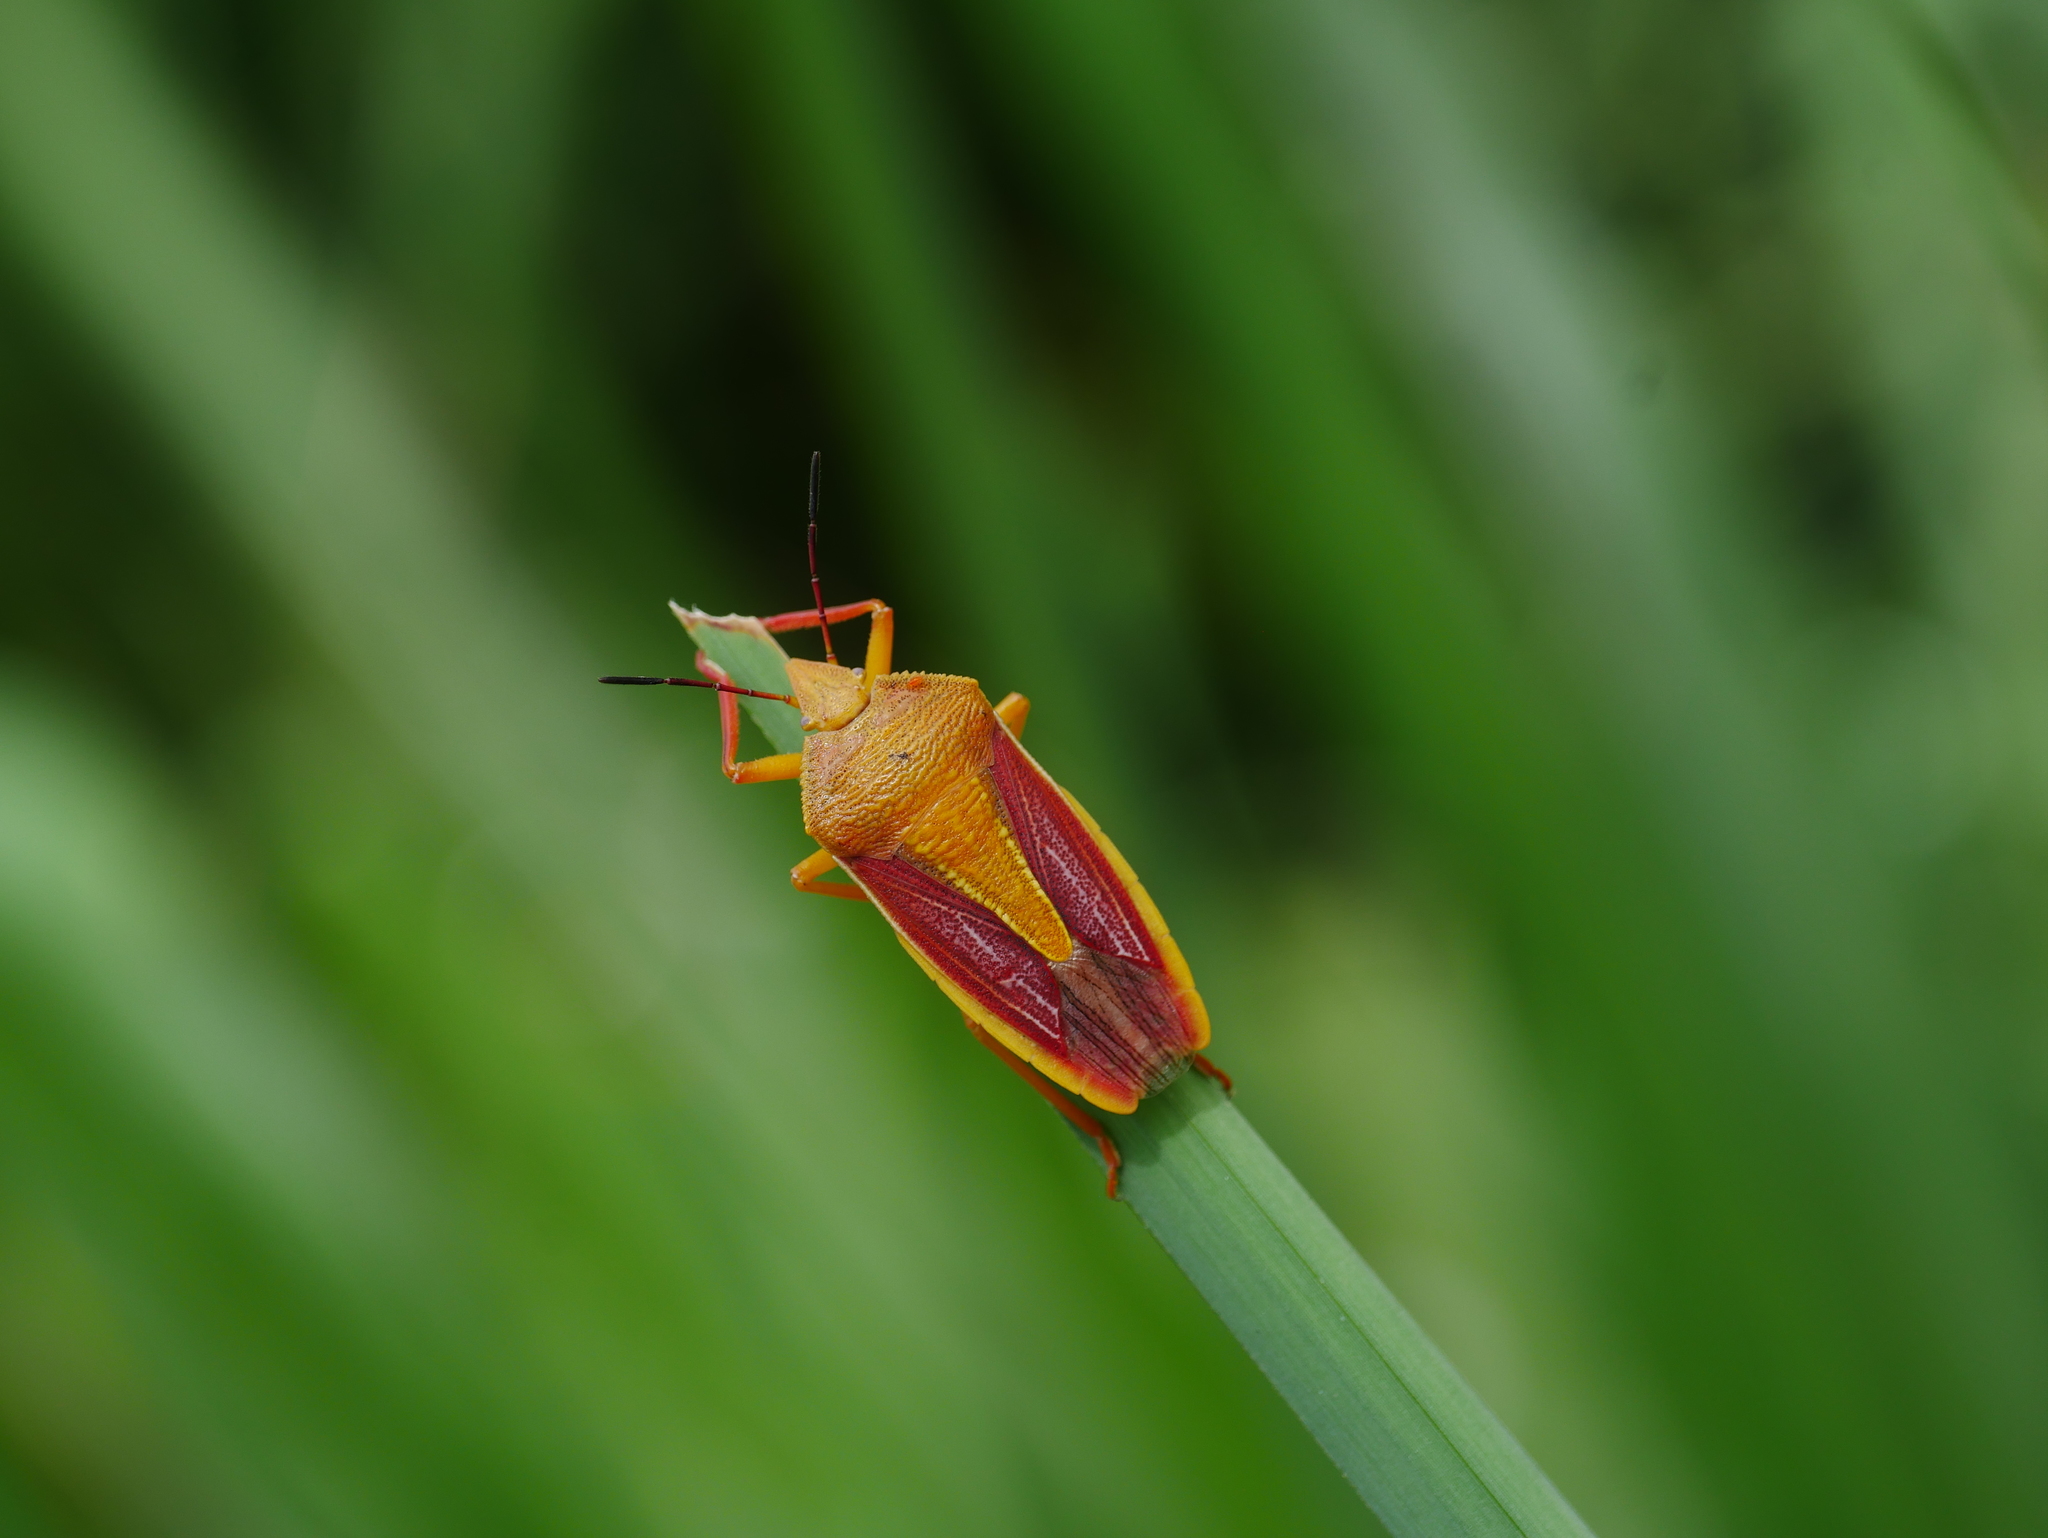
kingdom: Animalia
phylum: Arthropoda
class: Insecta
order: Hemiptera
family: Pentatomidae
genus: Megarrhamphus
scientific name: Megarrhamphus truncatus
